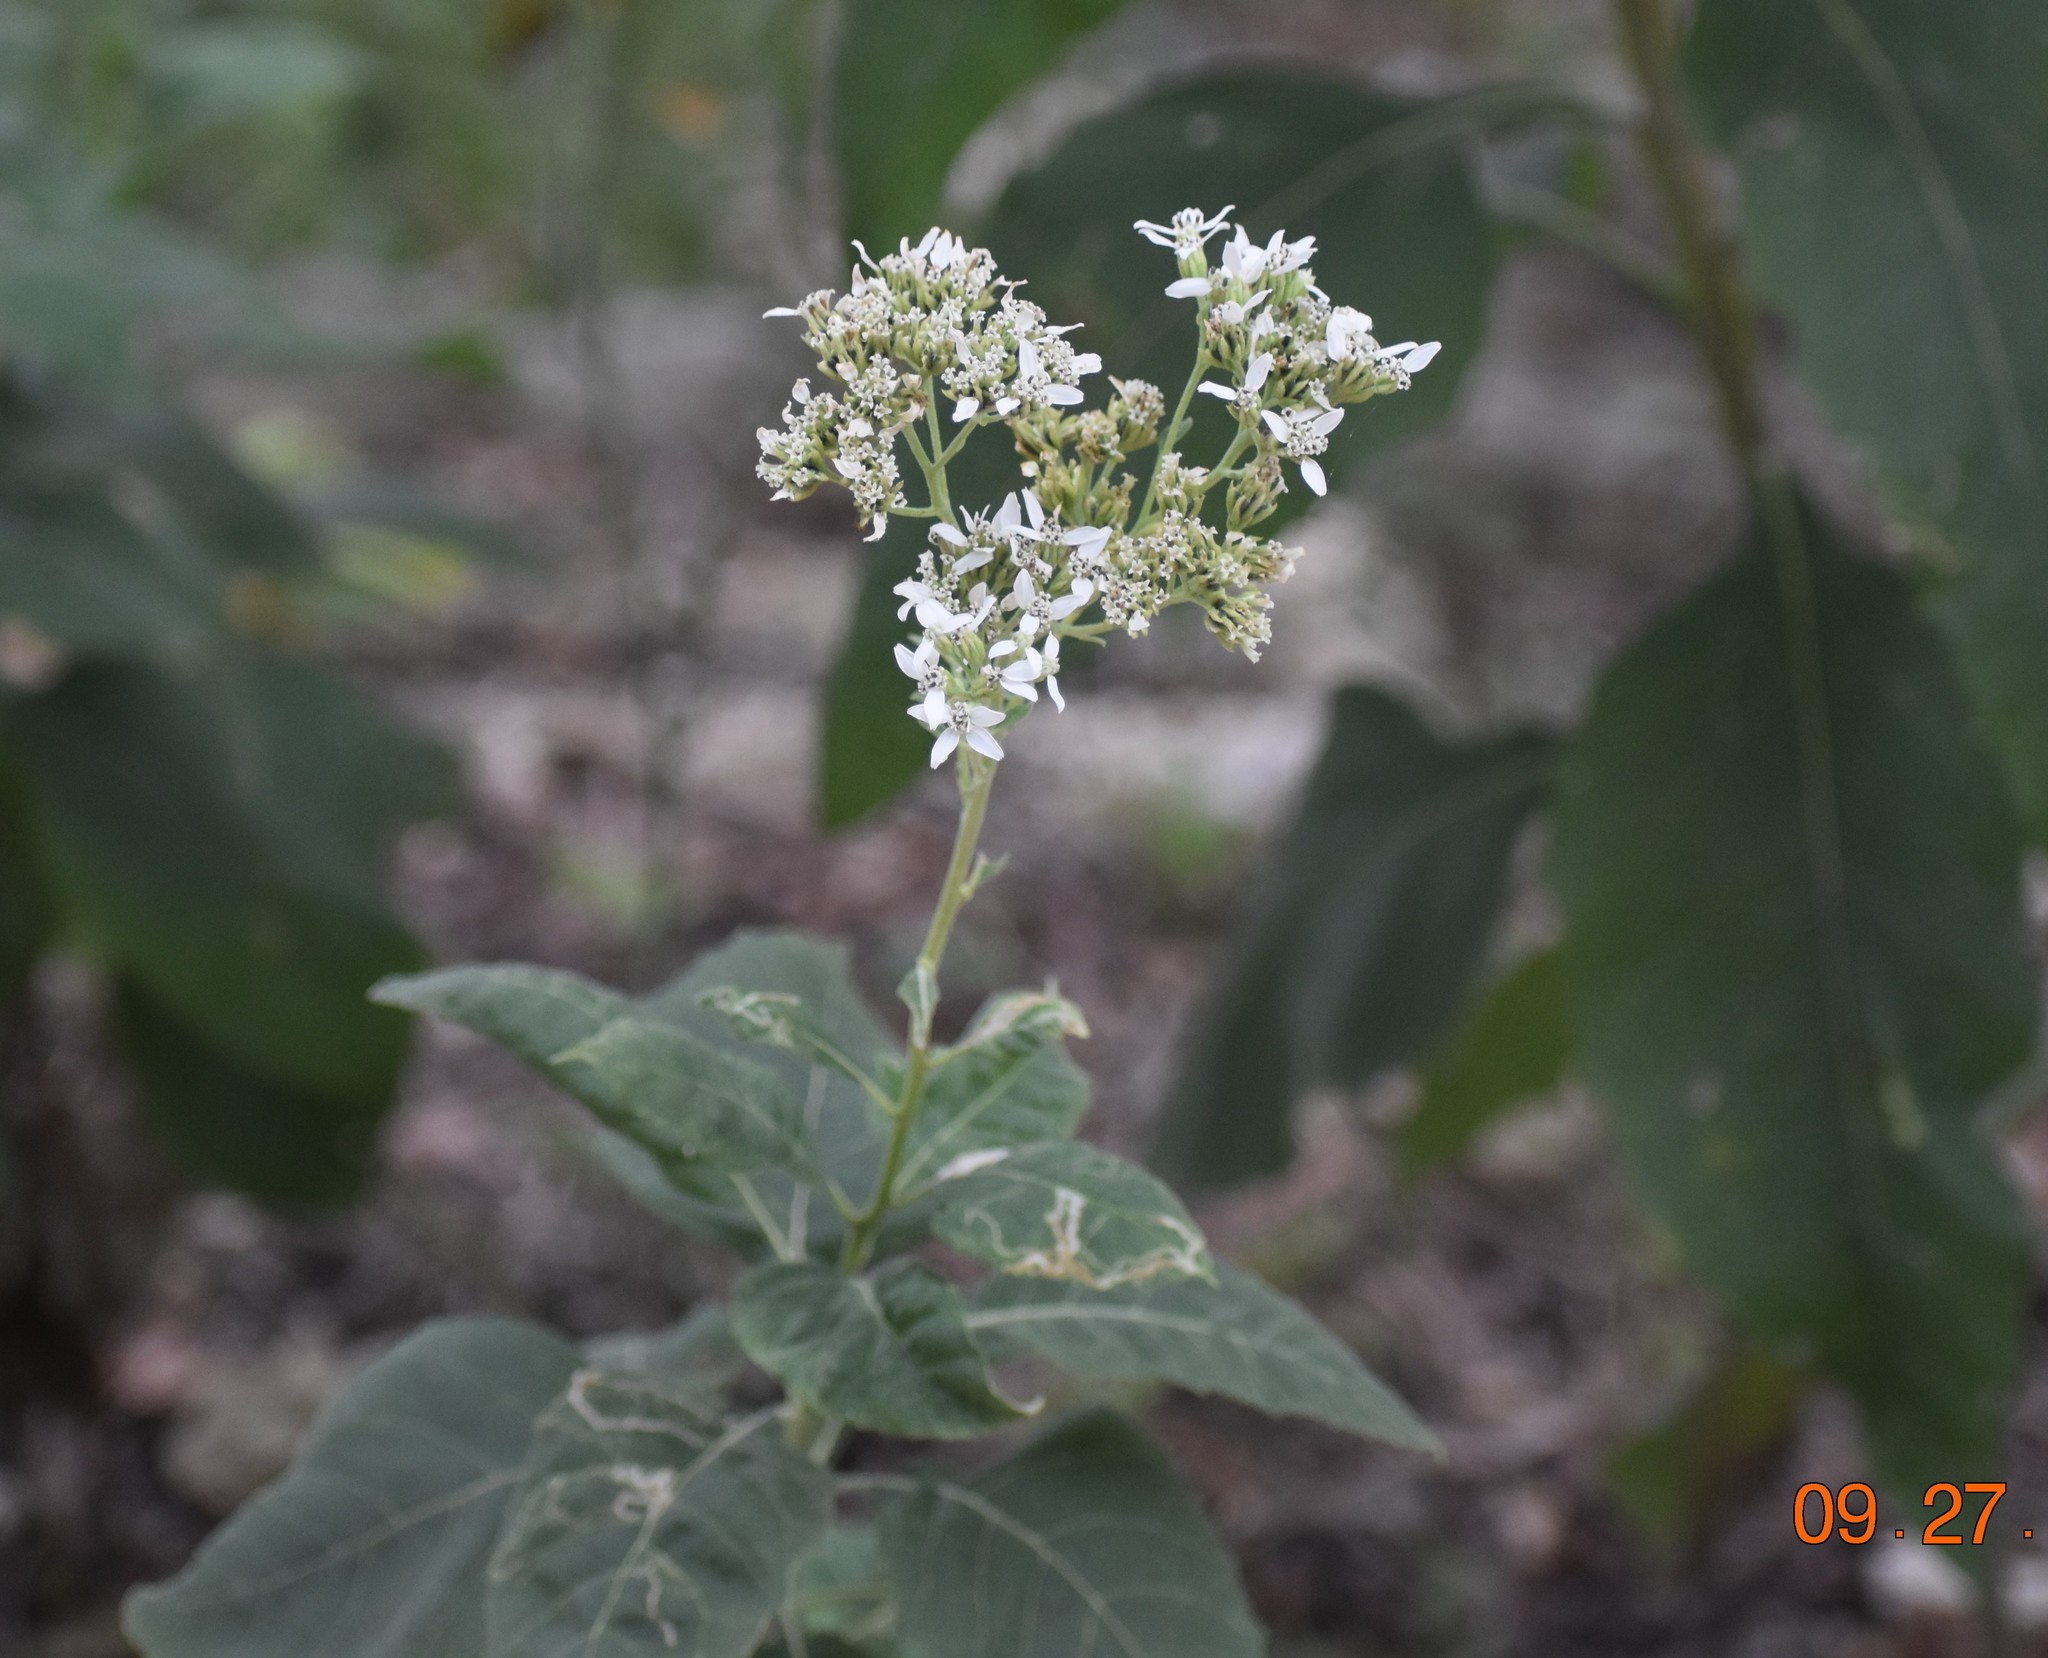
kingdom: Plantae
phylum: Tracheophyta
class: Magnoliopsida
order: Asterales
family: Asteraceae
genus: Verbesina
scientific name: Verbesina virginica
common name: Frostweed
